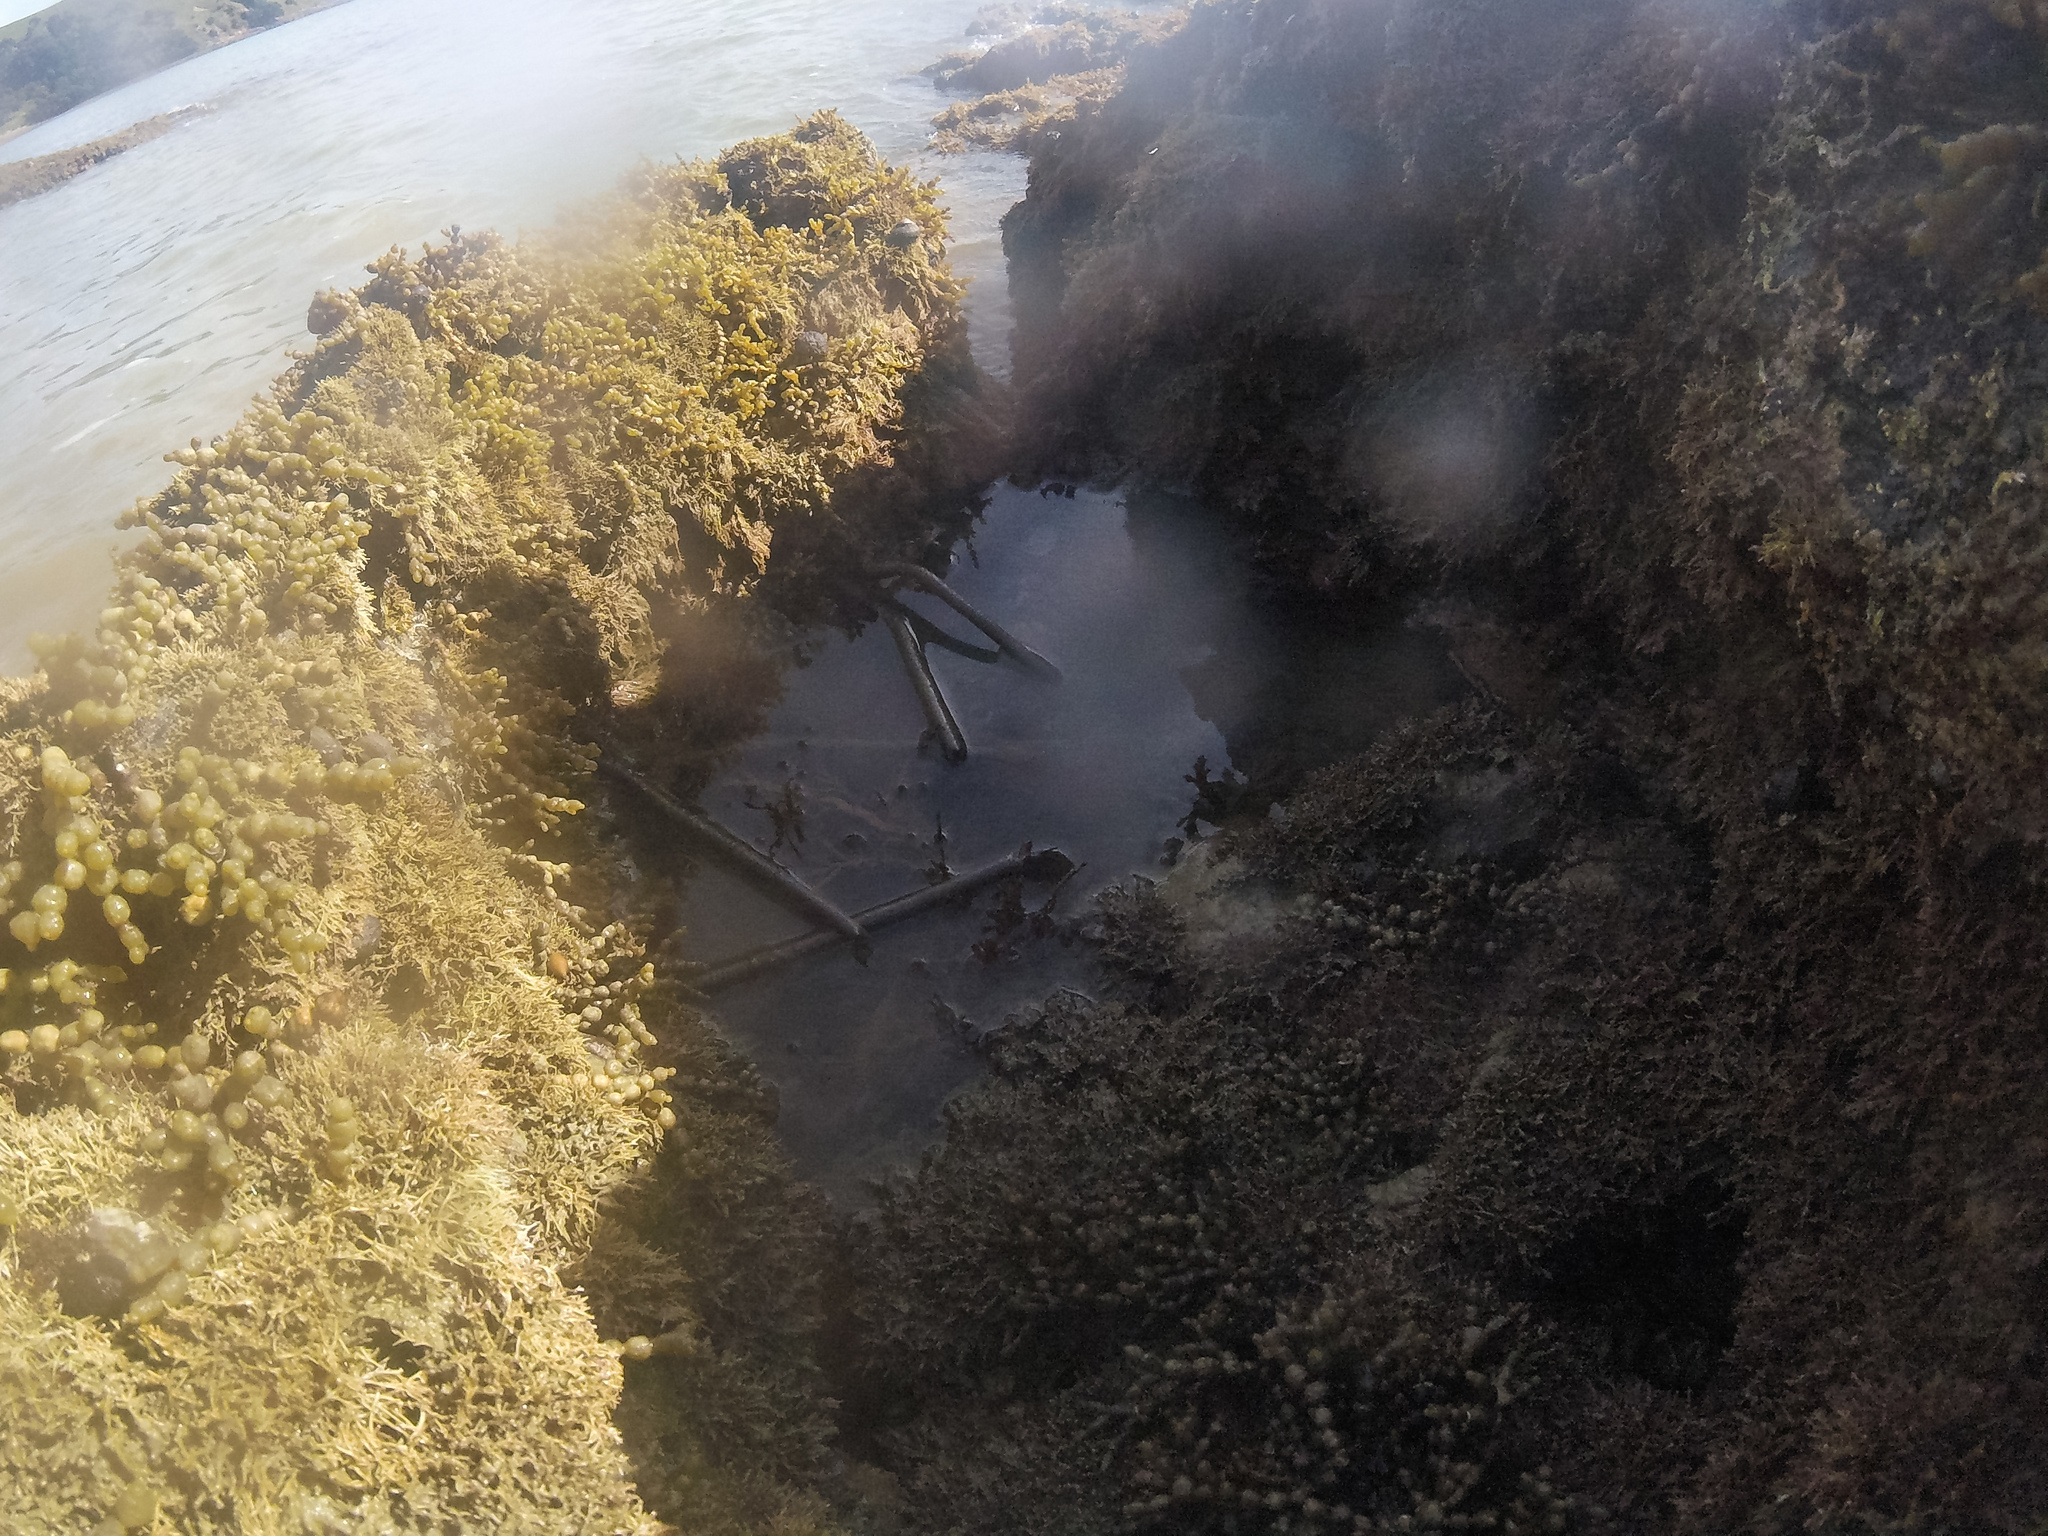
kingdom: Animalia
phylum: Annelida
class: Polychaeta
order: Sabellida
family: Sabellidae
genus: Sabella
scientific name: Sabella spallanzanii
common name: Feather duster worm
